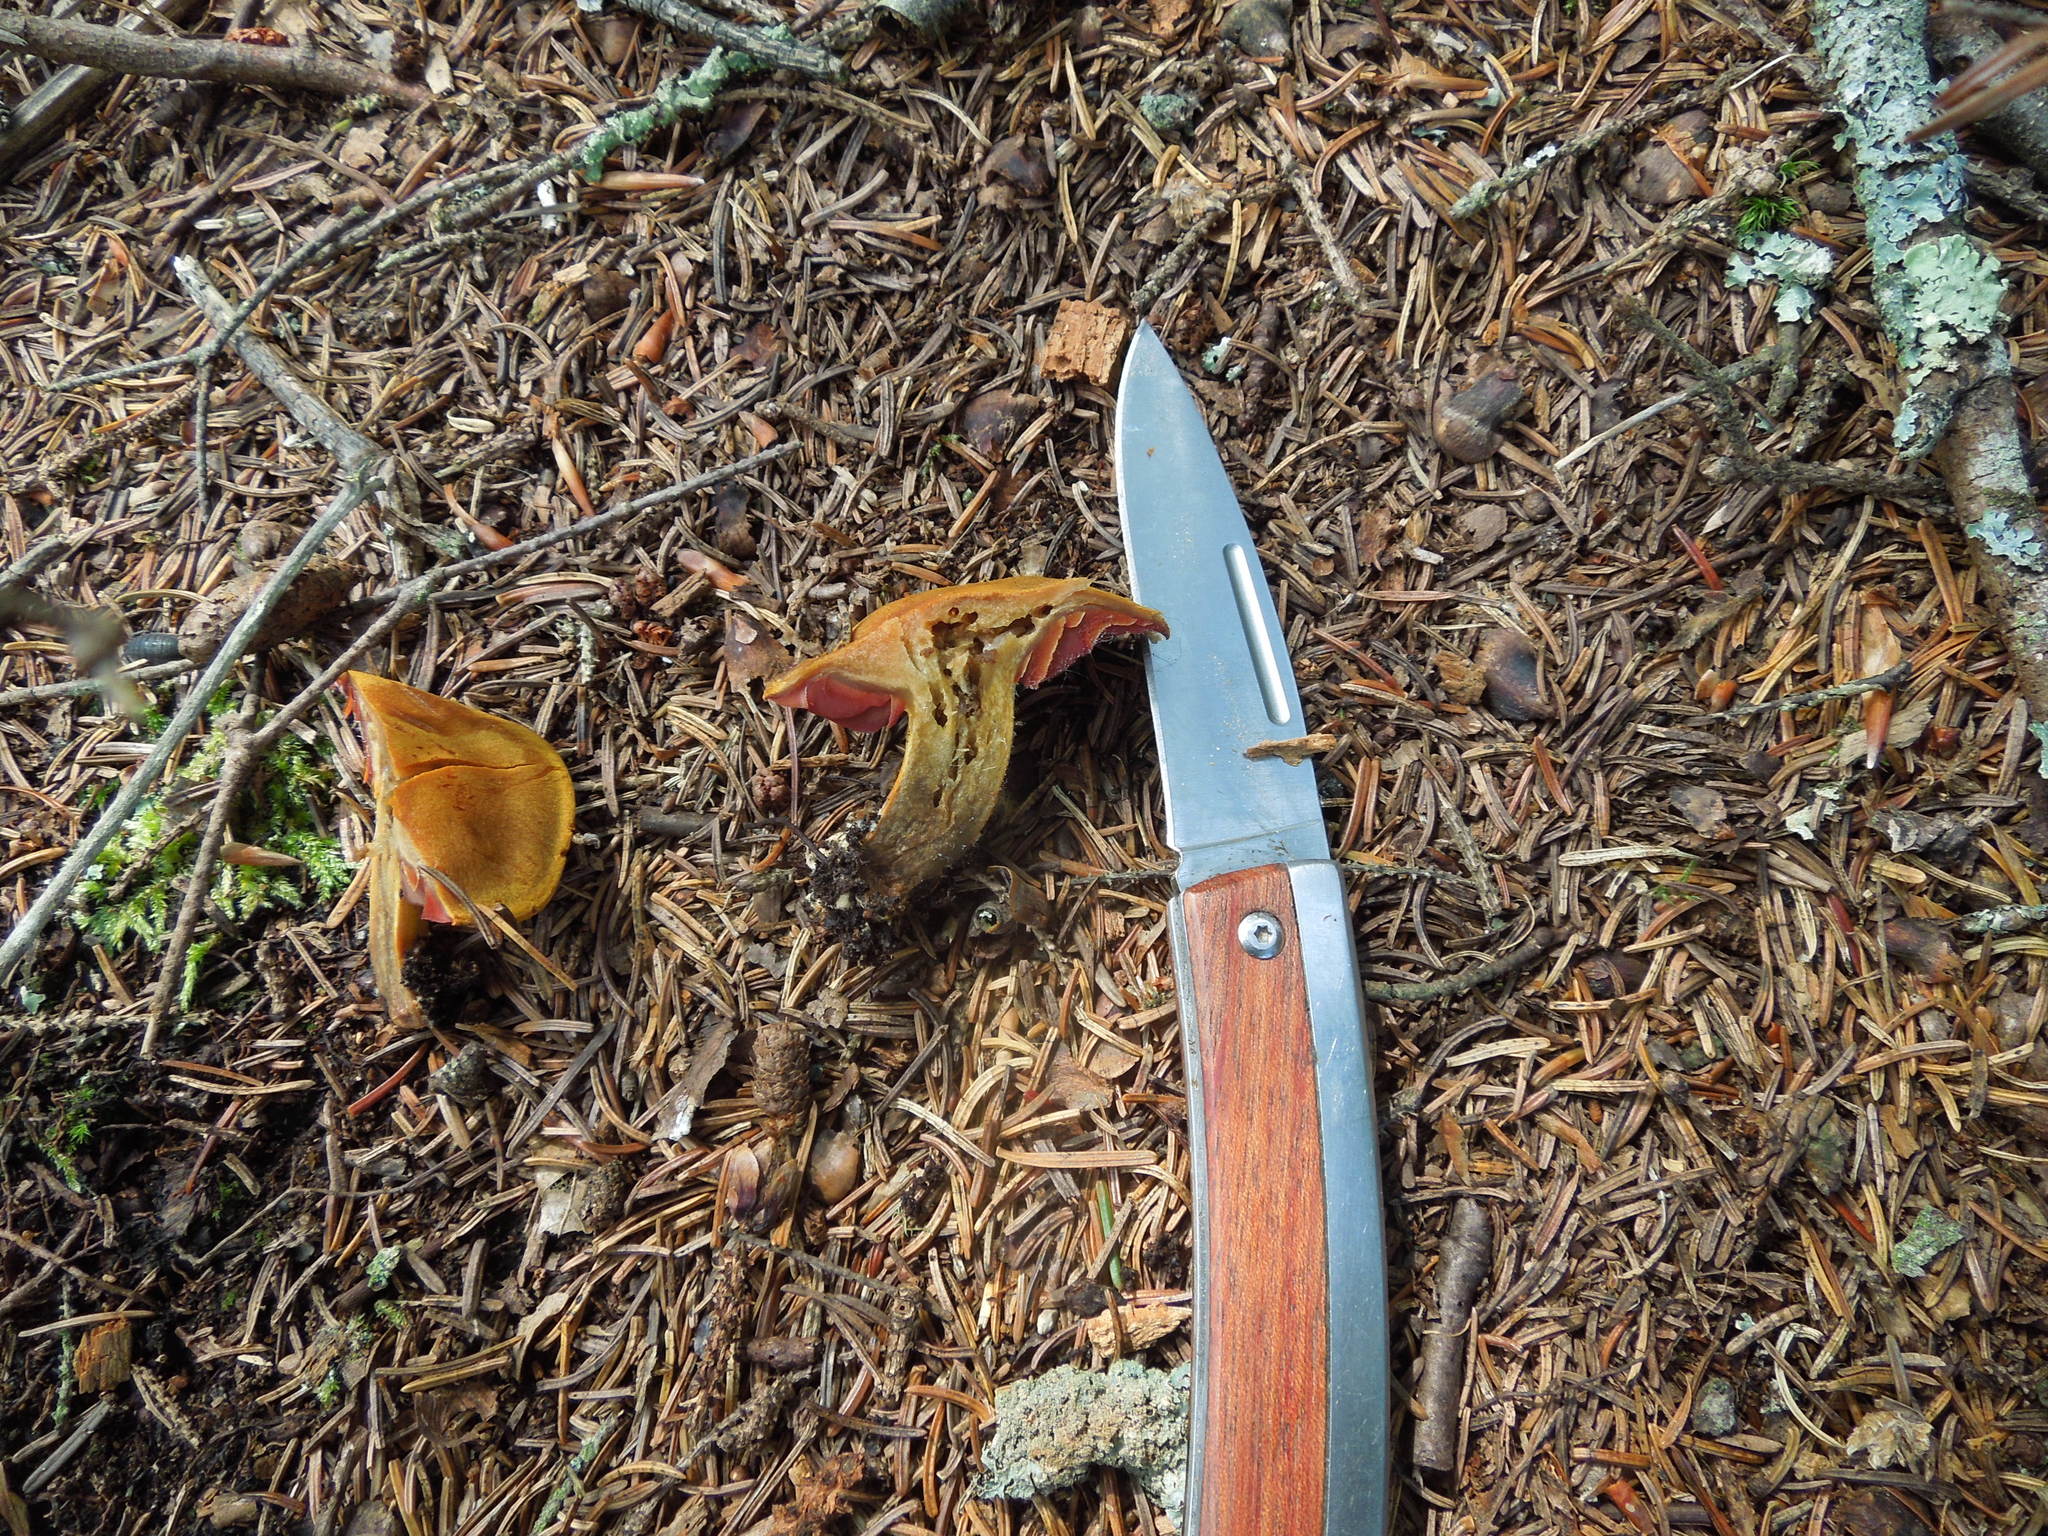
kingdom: Fungi
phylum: Basidiomycota
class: Agaricomycetes
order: Agaricales
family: Cortinariaceae
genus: Cortinarius
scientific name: Cortinarius semisanguineus
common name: Surprise webcap
